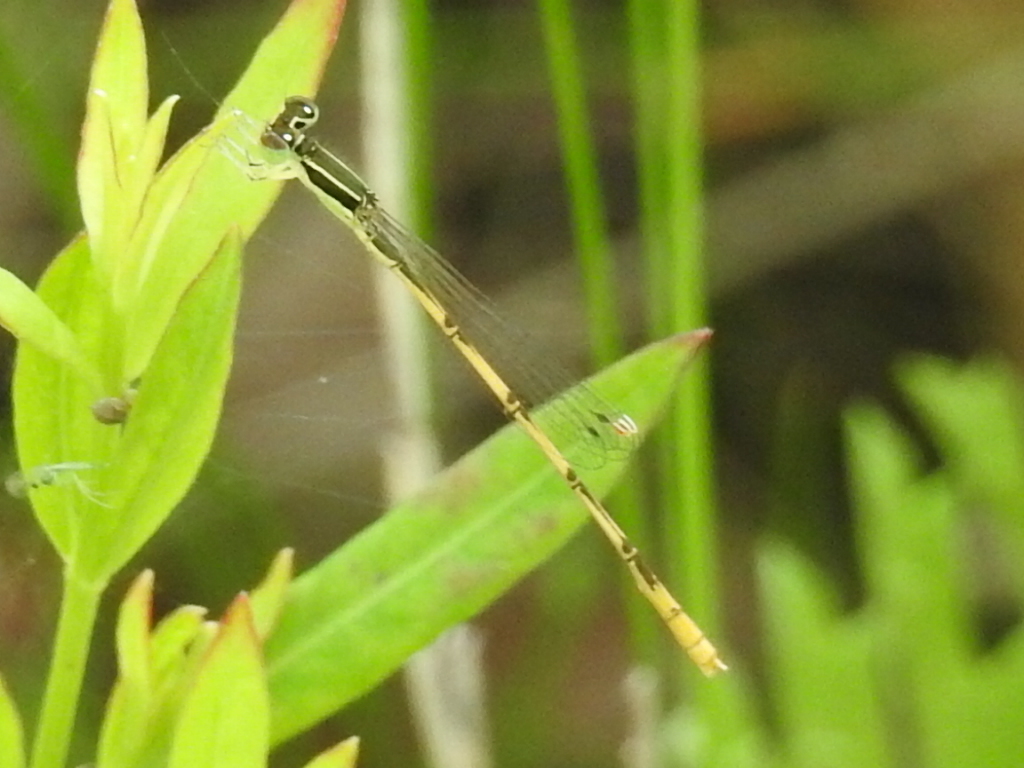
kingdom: Animalia
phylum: Arthropoda
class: Insecta
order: Odonata
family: Coenagrionidae
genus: Ischnura
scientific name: Ischnura hastata
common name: Citrine forktail
